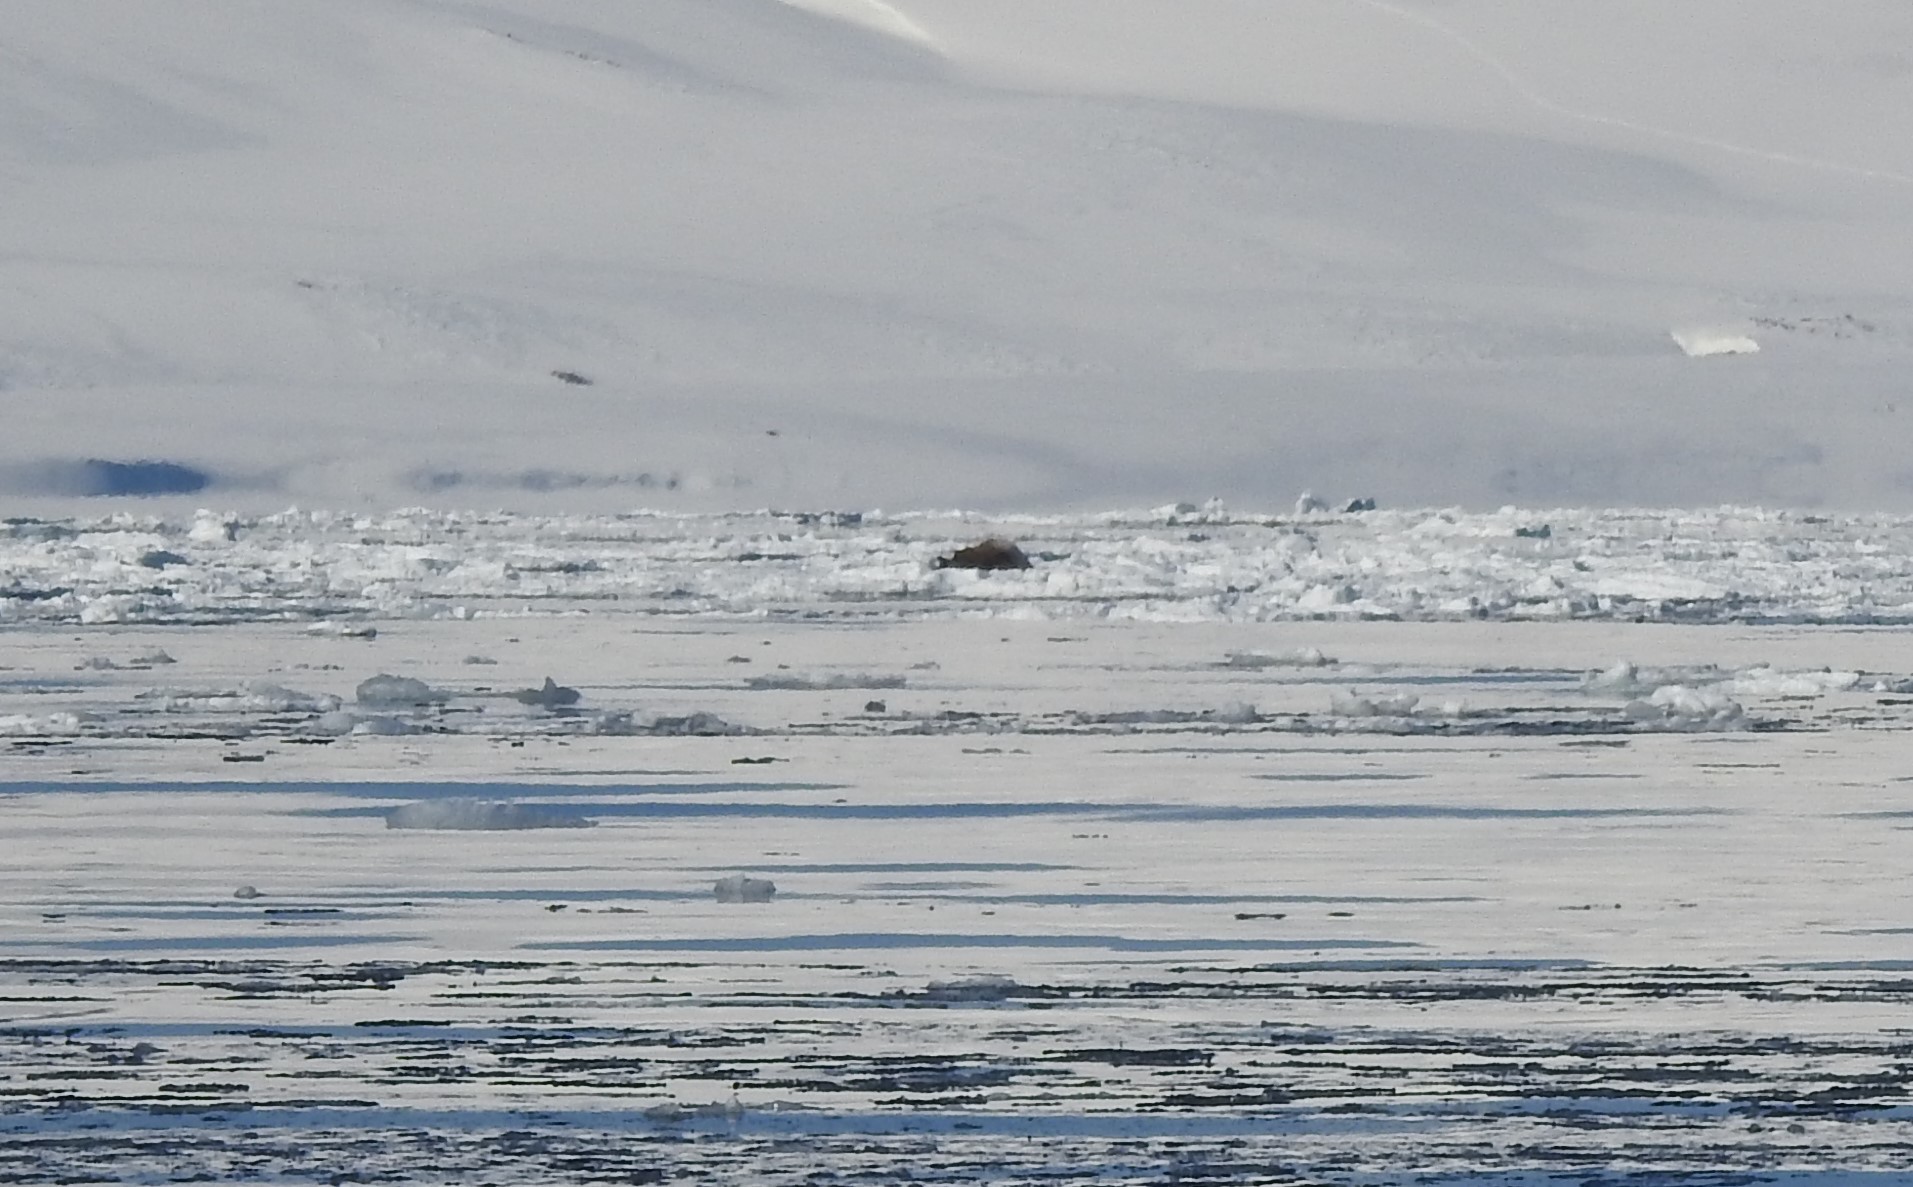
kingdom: Animalia
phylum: Chordata
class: Mammalia
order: Carnivora
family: Odobenidae
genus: Odobenus
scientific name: Odobenus rosmarus
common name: Walrus
